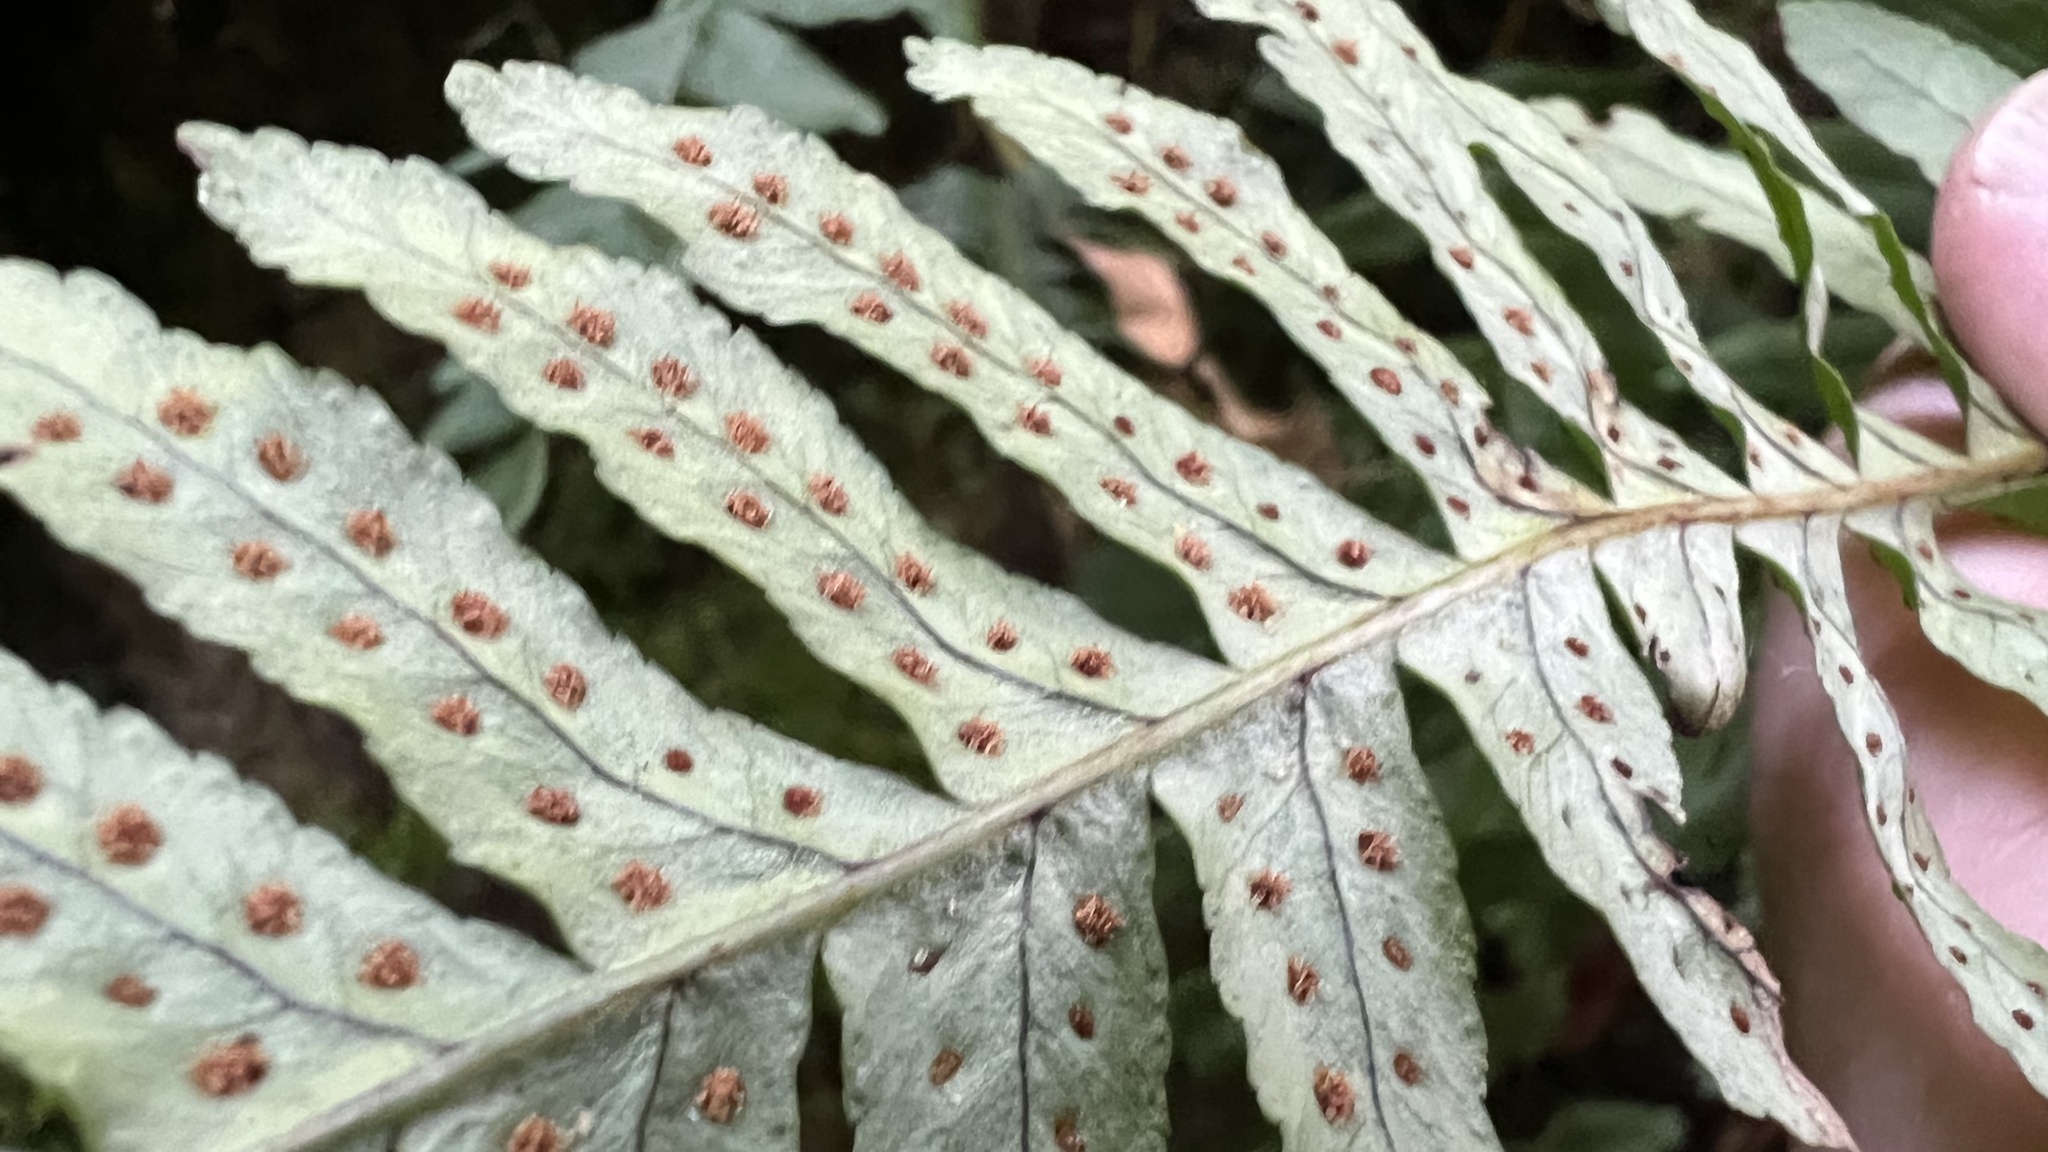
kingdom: Plantae
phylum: Tracheophyta
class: Polypodiopsida
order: Polypodiales
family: Polypodiaceae
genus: Polypodium
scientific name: Polypodium vulgare
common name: Common polypody
